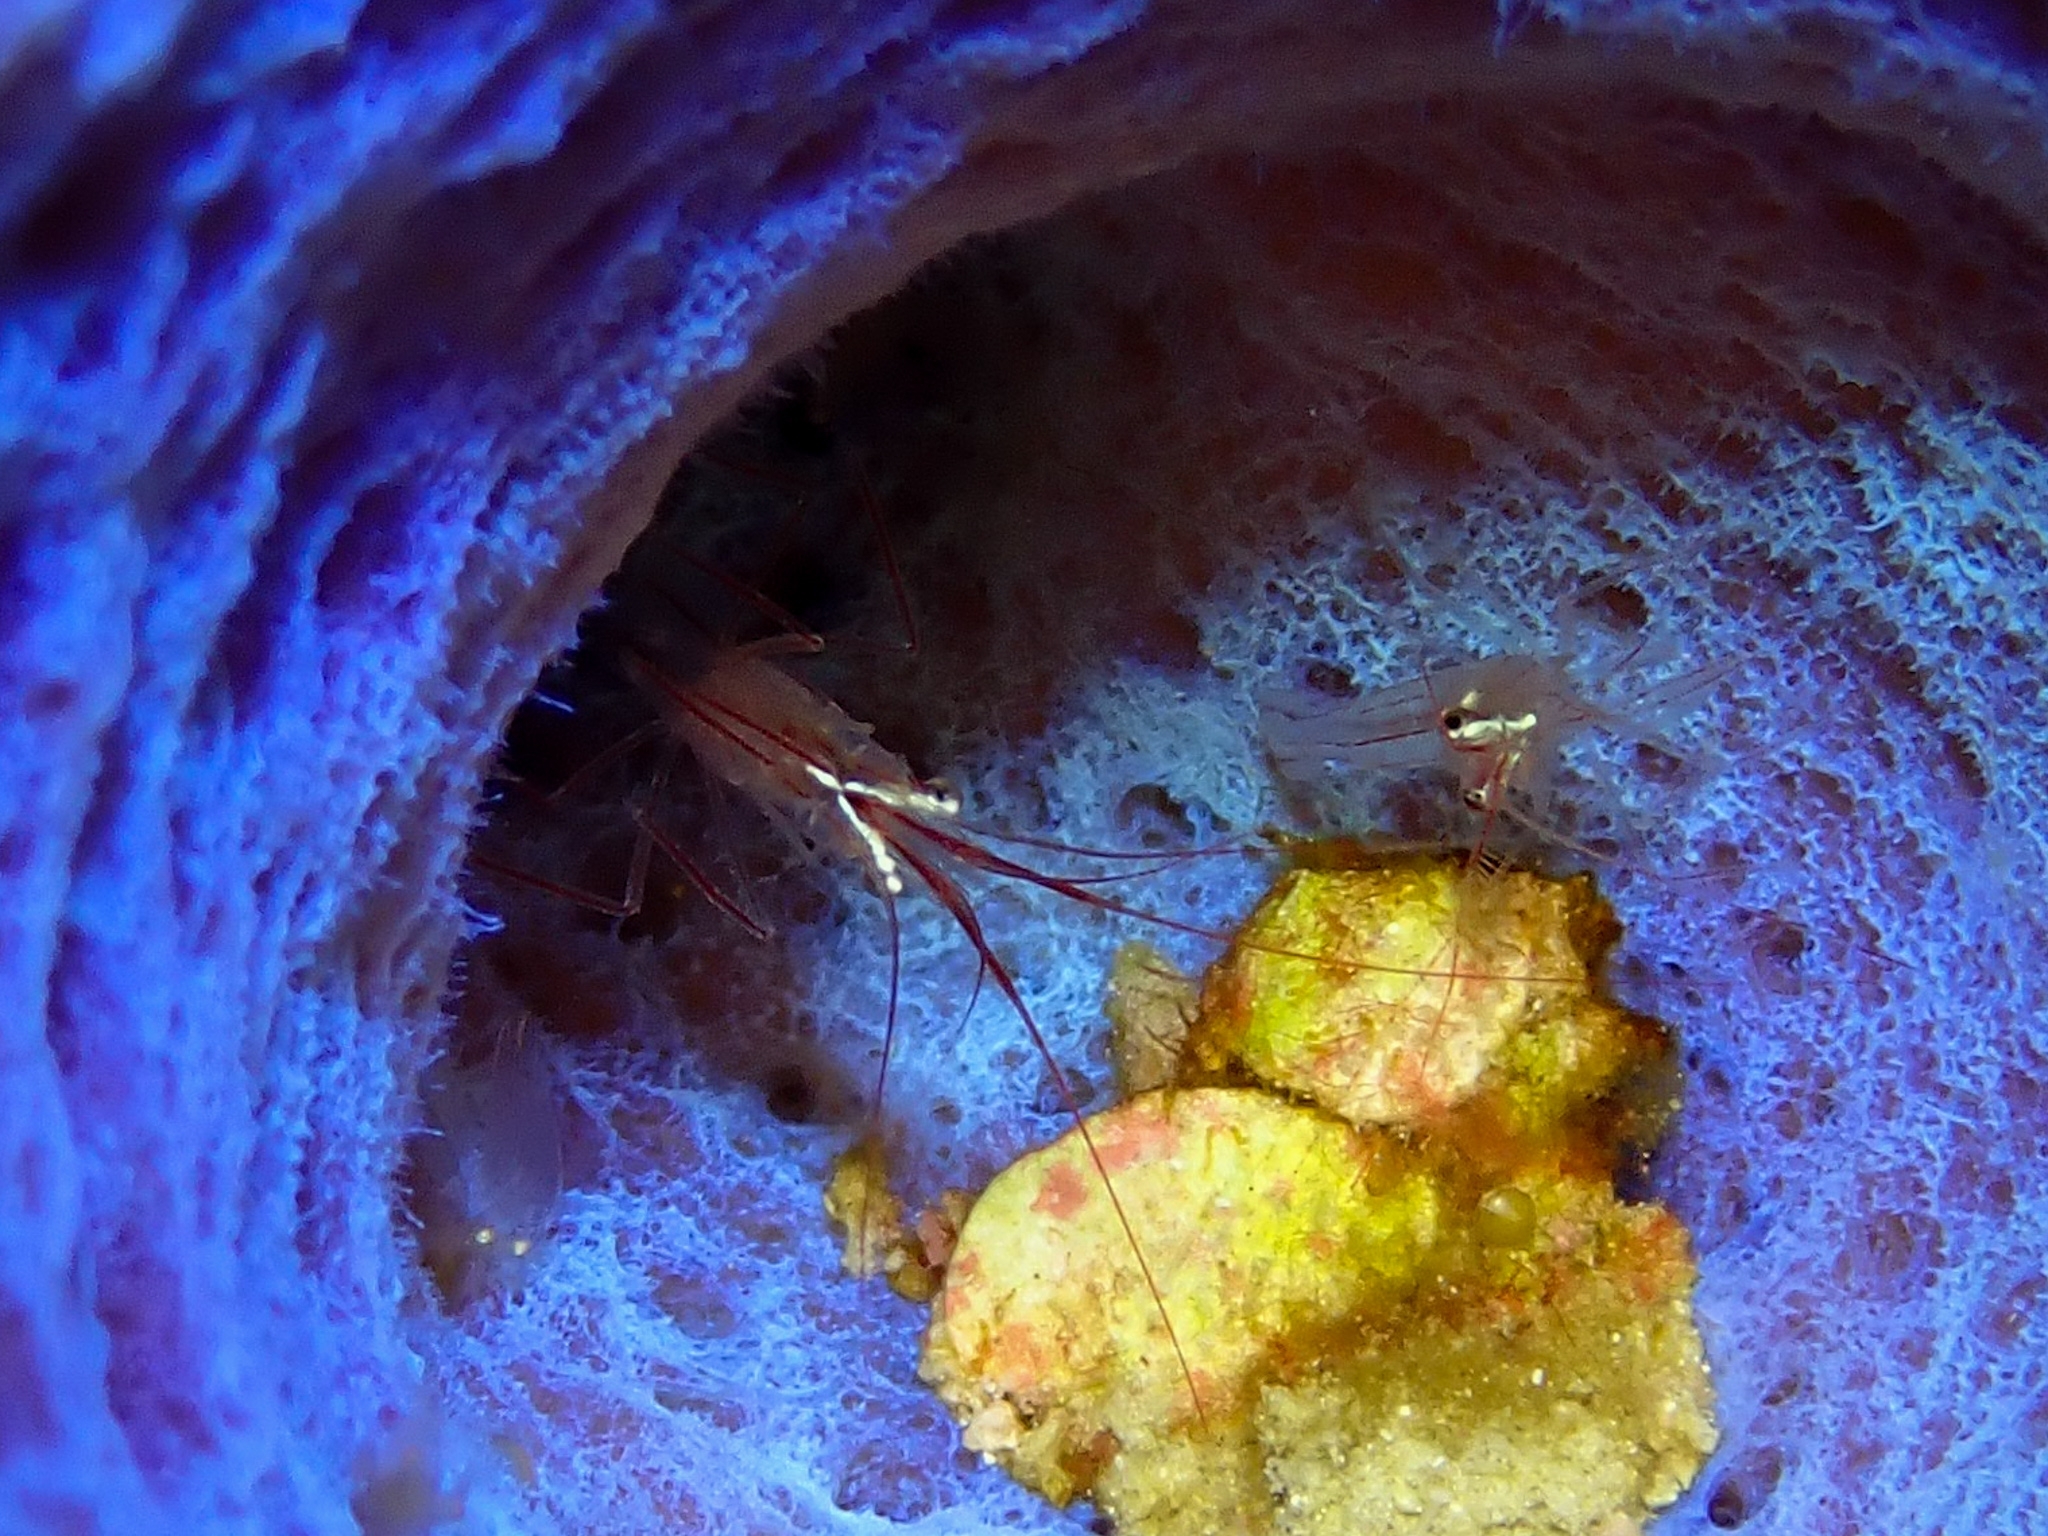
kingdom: Animalia
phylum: Arthropoda
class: Malacostraca
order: Decapoda
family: Lysmatidae
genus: Lysmata
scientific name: Lysmata pederseni
